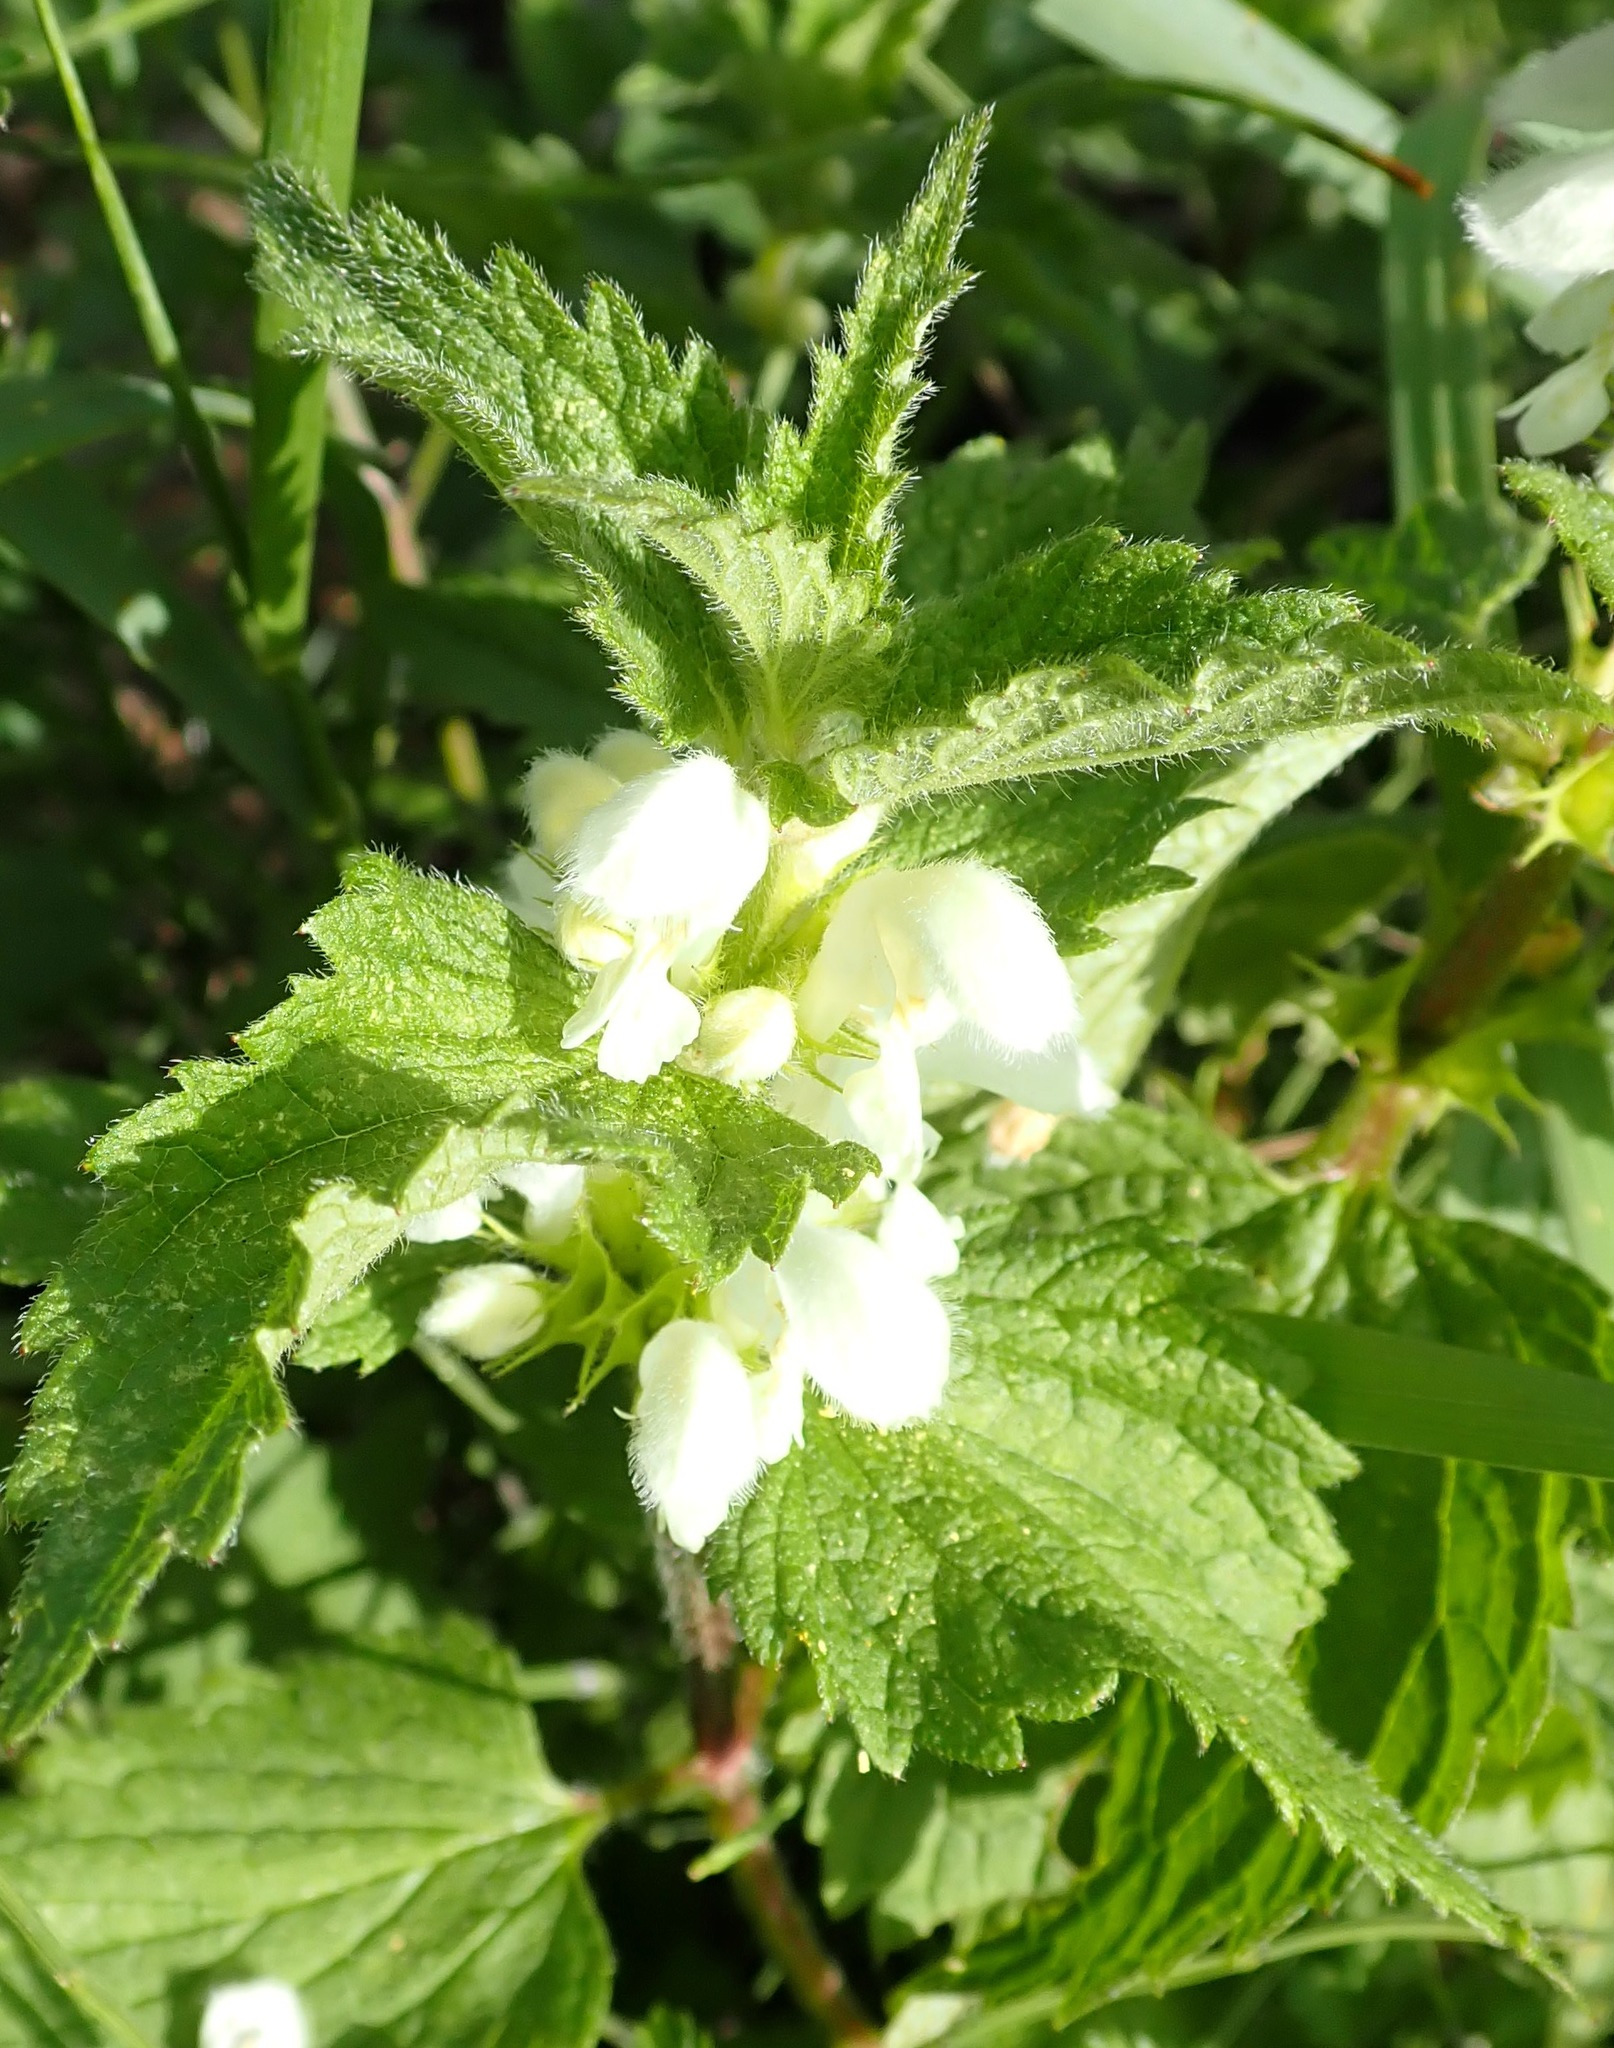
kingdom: Plantae
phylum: Tracheophyta
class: Magnoliopsida
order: Lamiales
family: Lamiaceae
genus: Lamium
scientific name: Lamium album
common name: White dead-nettle
